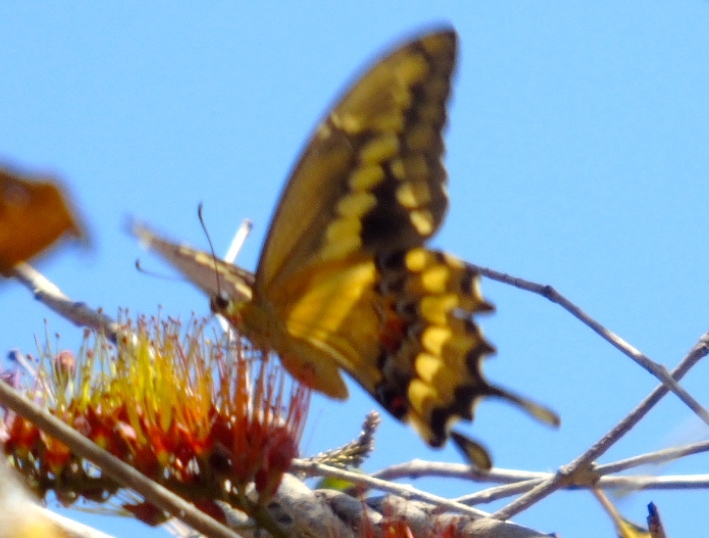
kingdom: Animalia
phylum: Arthropoda
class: Insecta
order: Lepidoptera
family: Papilionidae
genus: Papilio
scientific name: Papilio rumiko
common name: Western giant swallowtail
